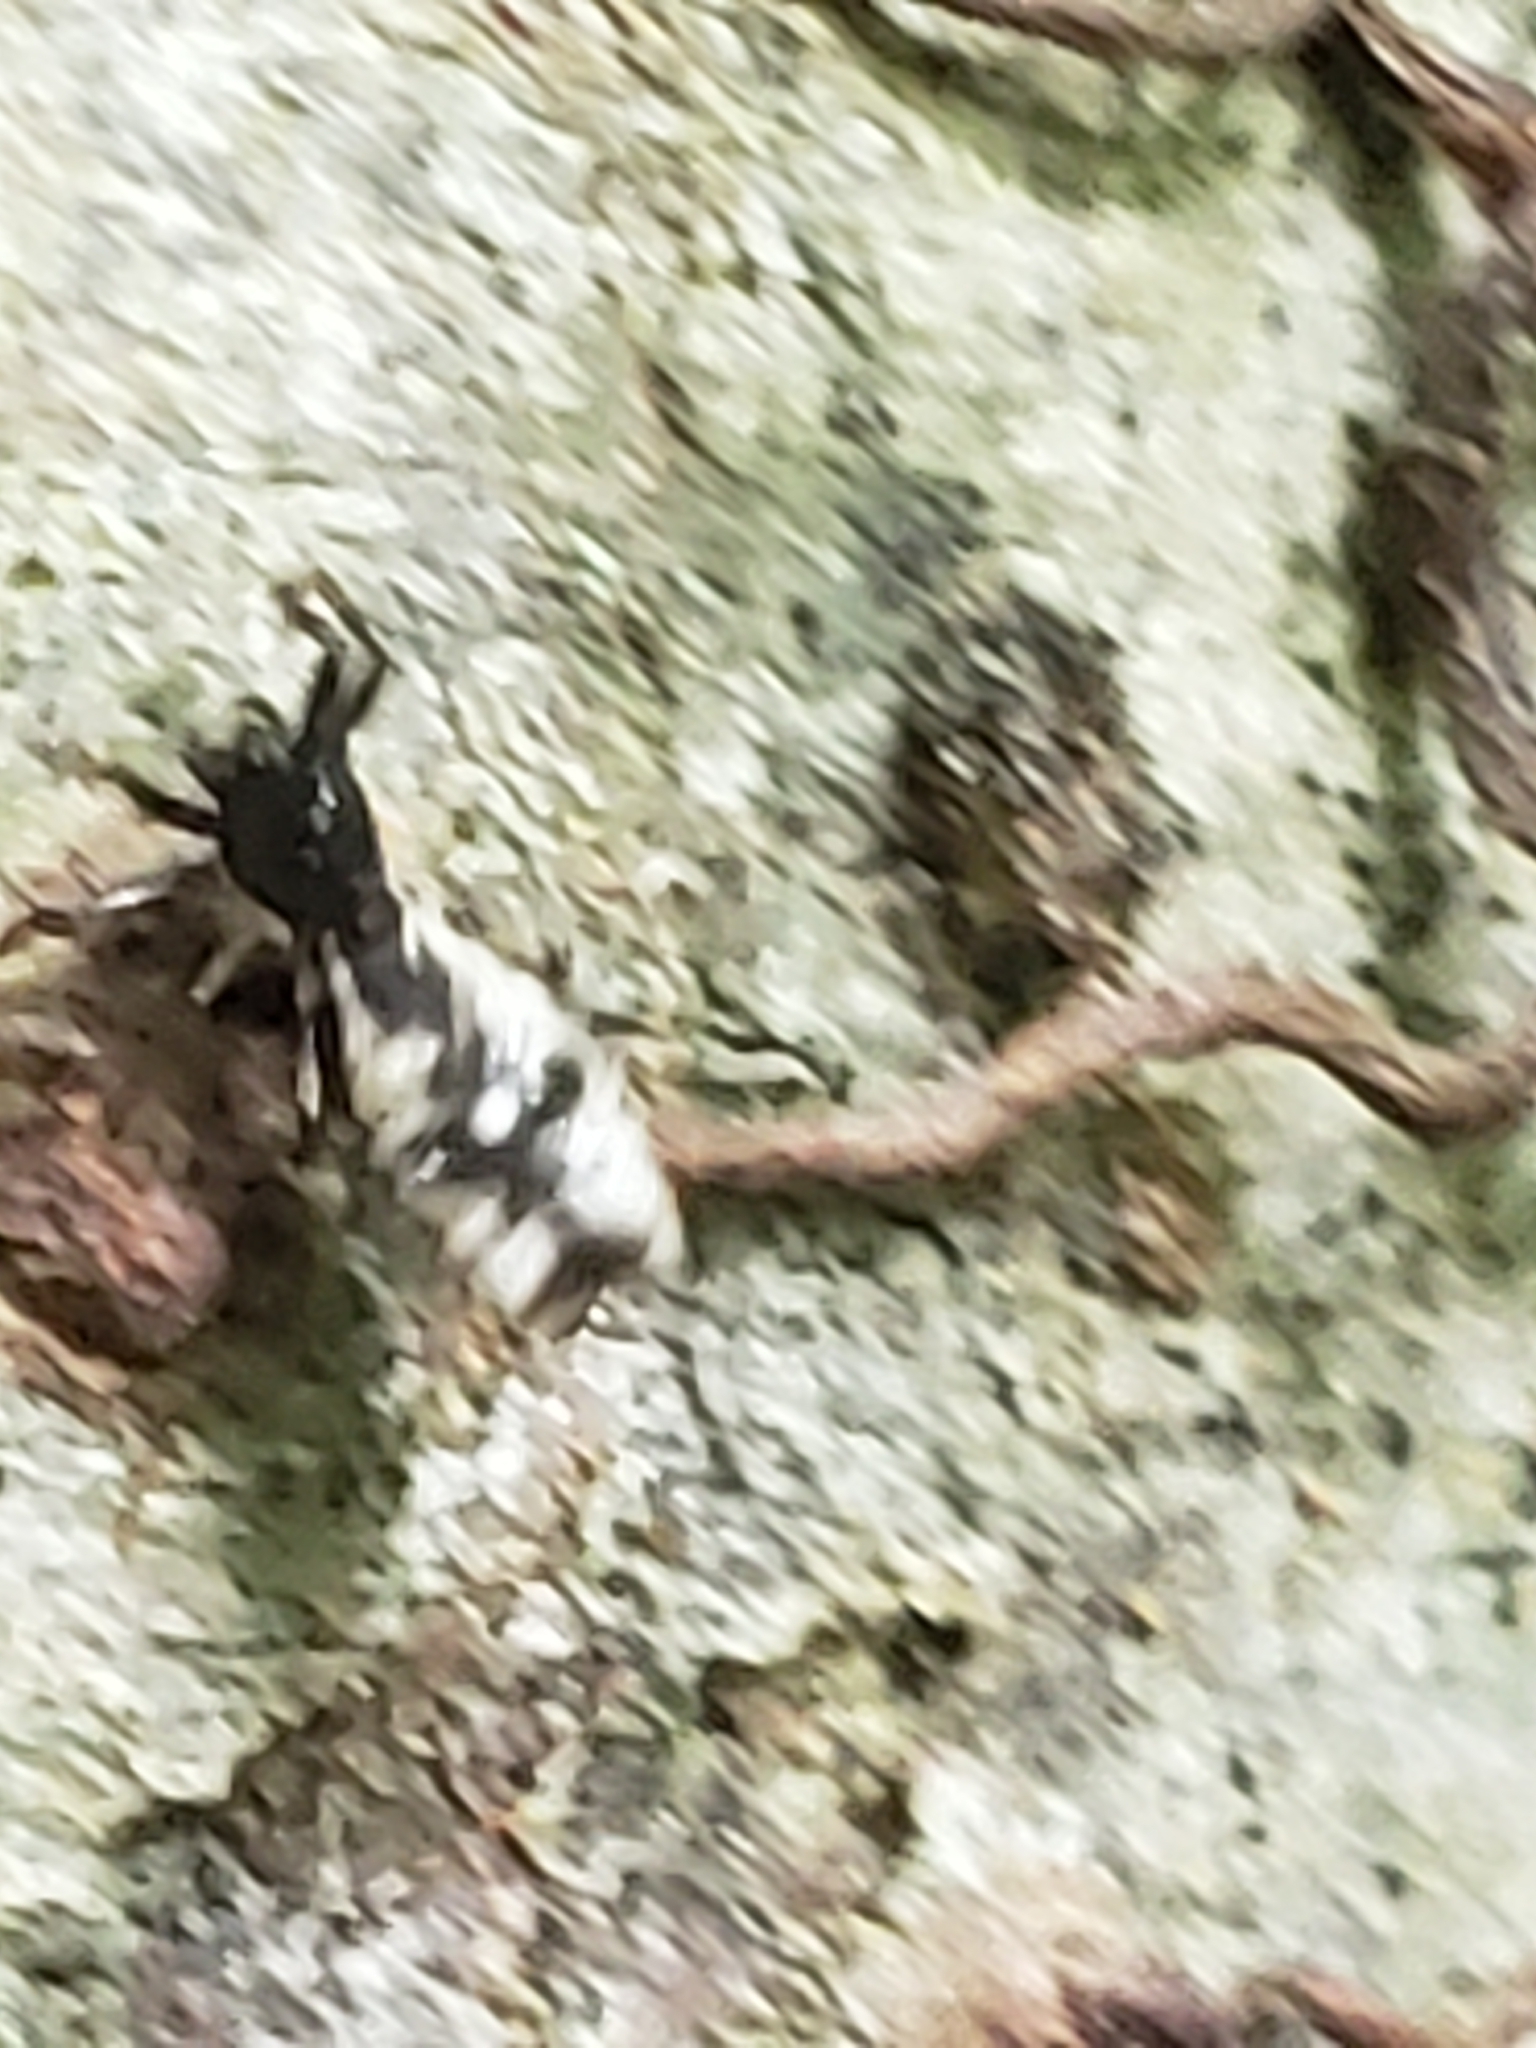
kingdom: Animalia
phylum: Arthropoda
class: Arachnida
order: Araneae
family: Araneidae
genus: Micrathena
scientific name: Micrathena gracilis
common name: Orb weavers
